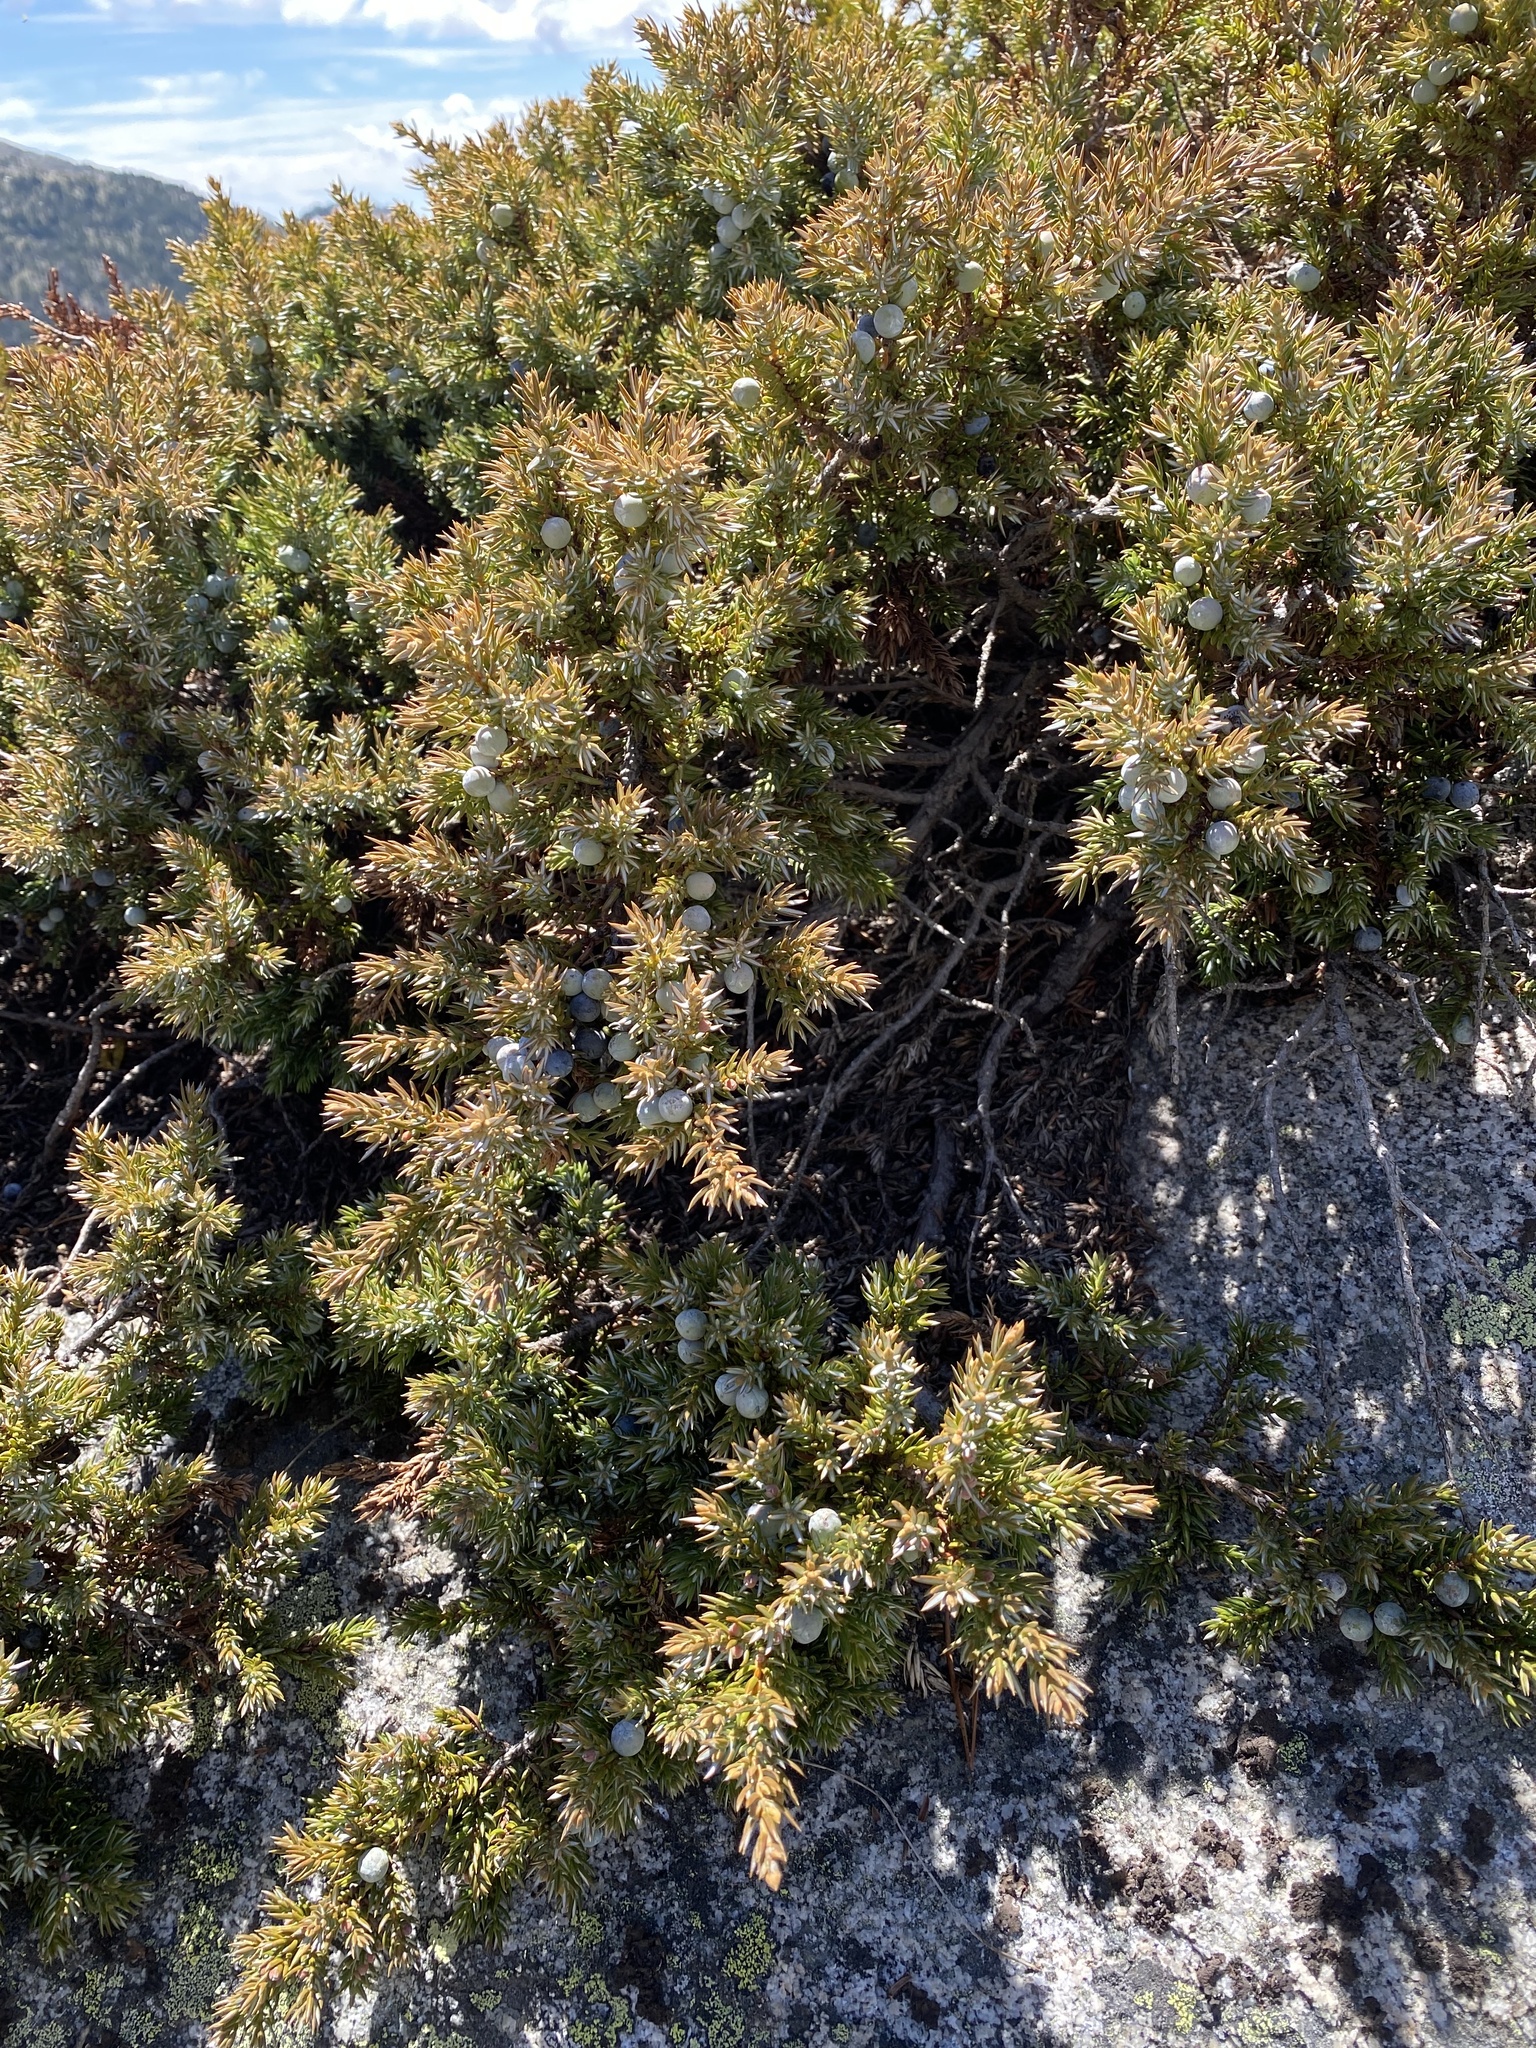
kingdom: Plantae
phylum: Tracheophyta
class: Pinopsida
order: Pinales
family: Cupressaceae
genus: Juniperus
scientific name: Juniperus communis
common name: Common juniper
